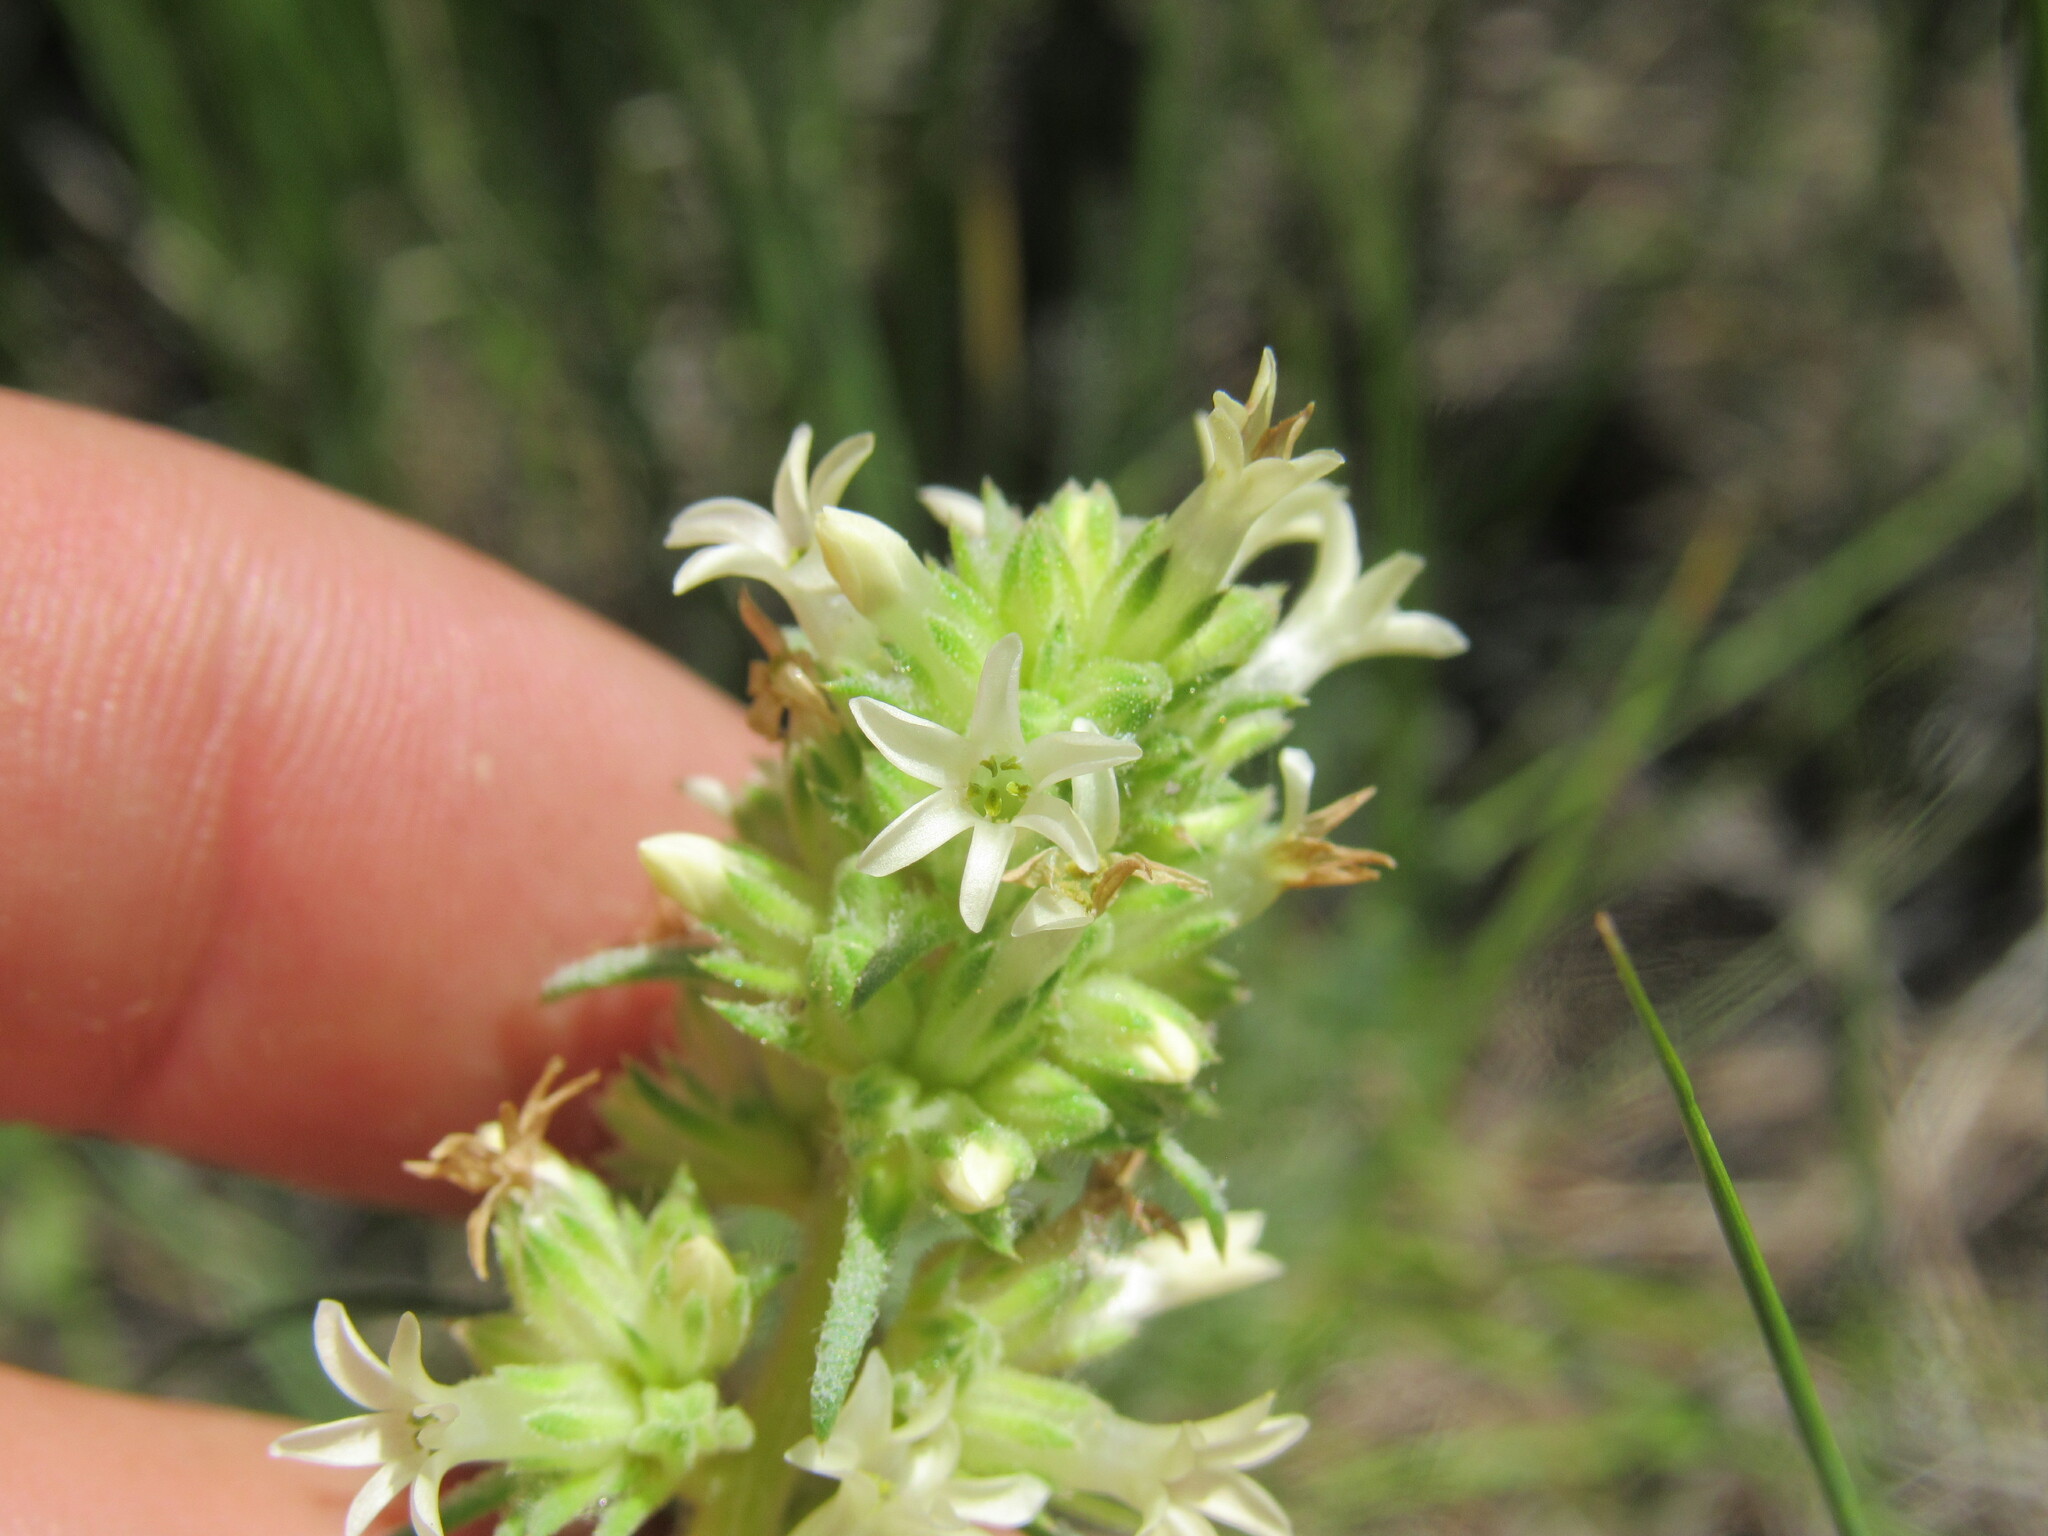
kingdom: Plantae
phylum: Tracheophyta
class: Magnoliopsida
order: Ericales
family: Polemoniaceae
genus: Ipomopsis
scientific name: Ipomopsis spicata
